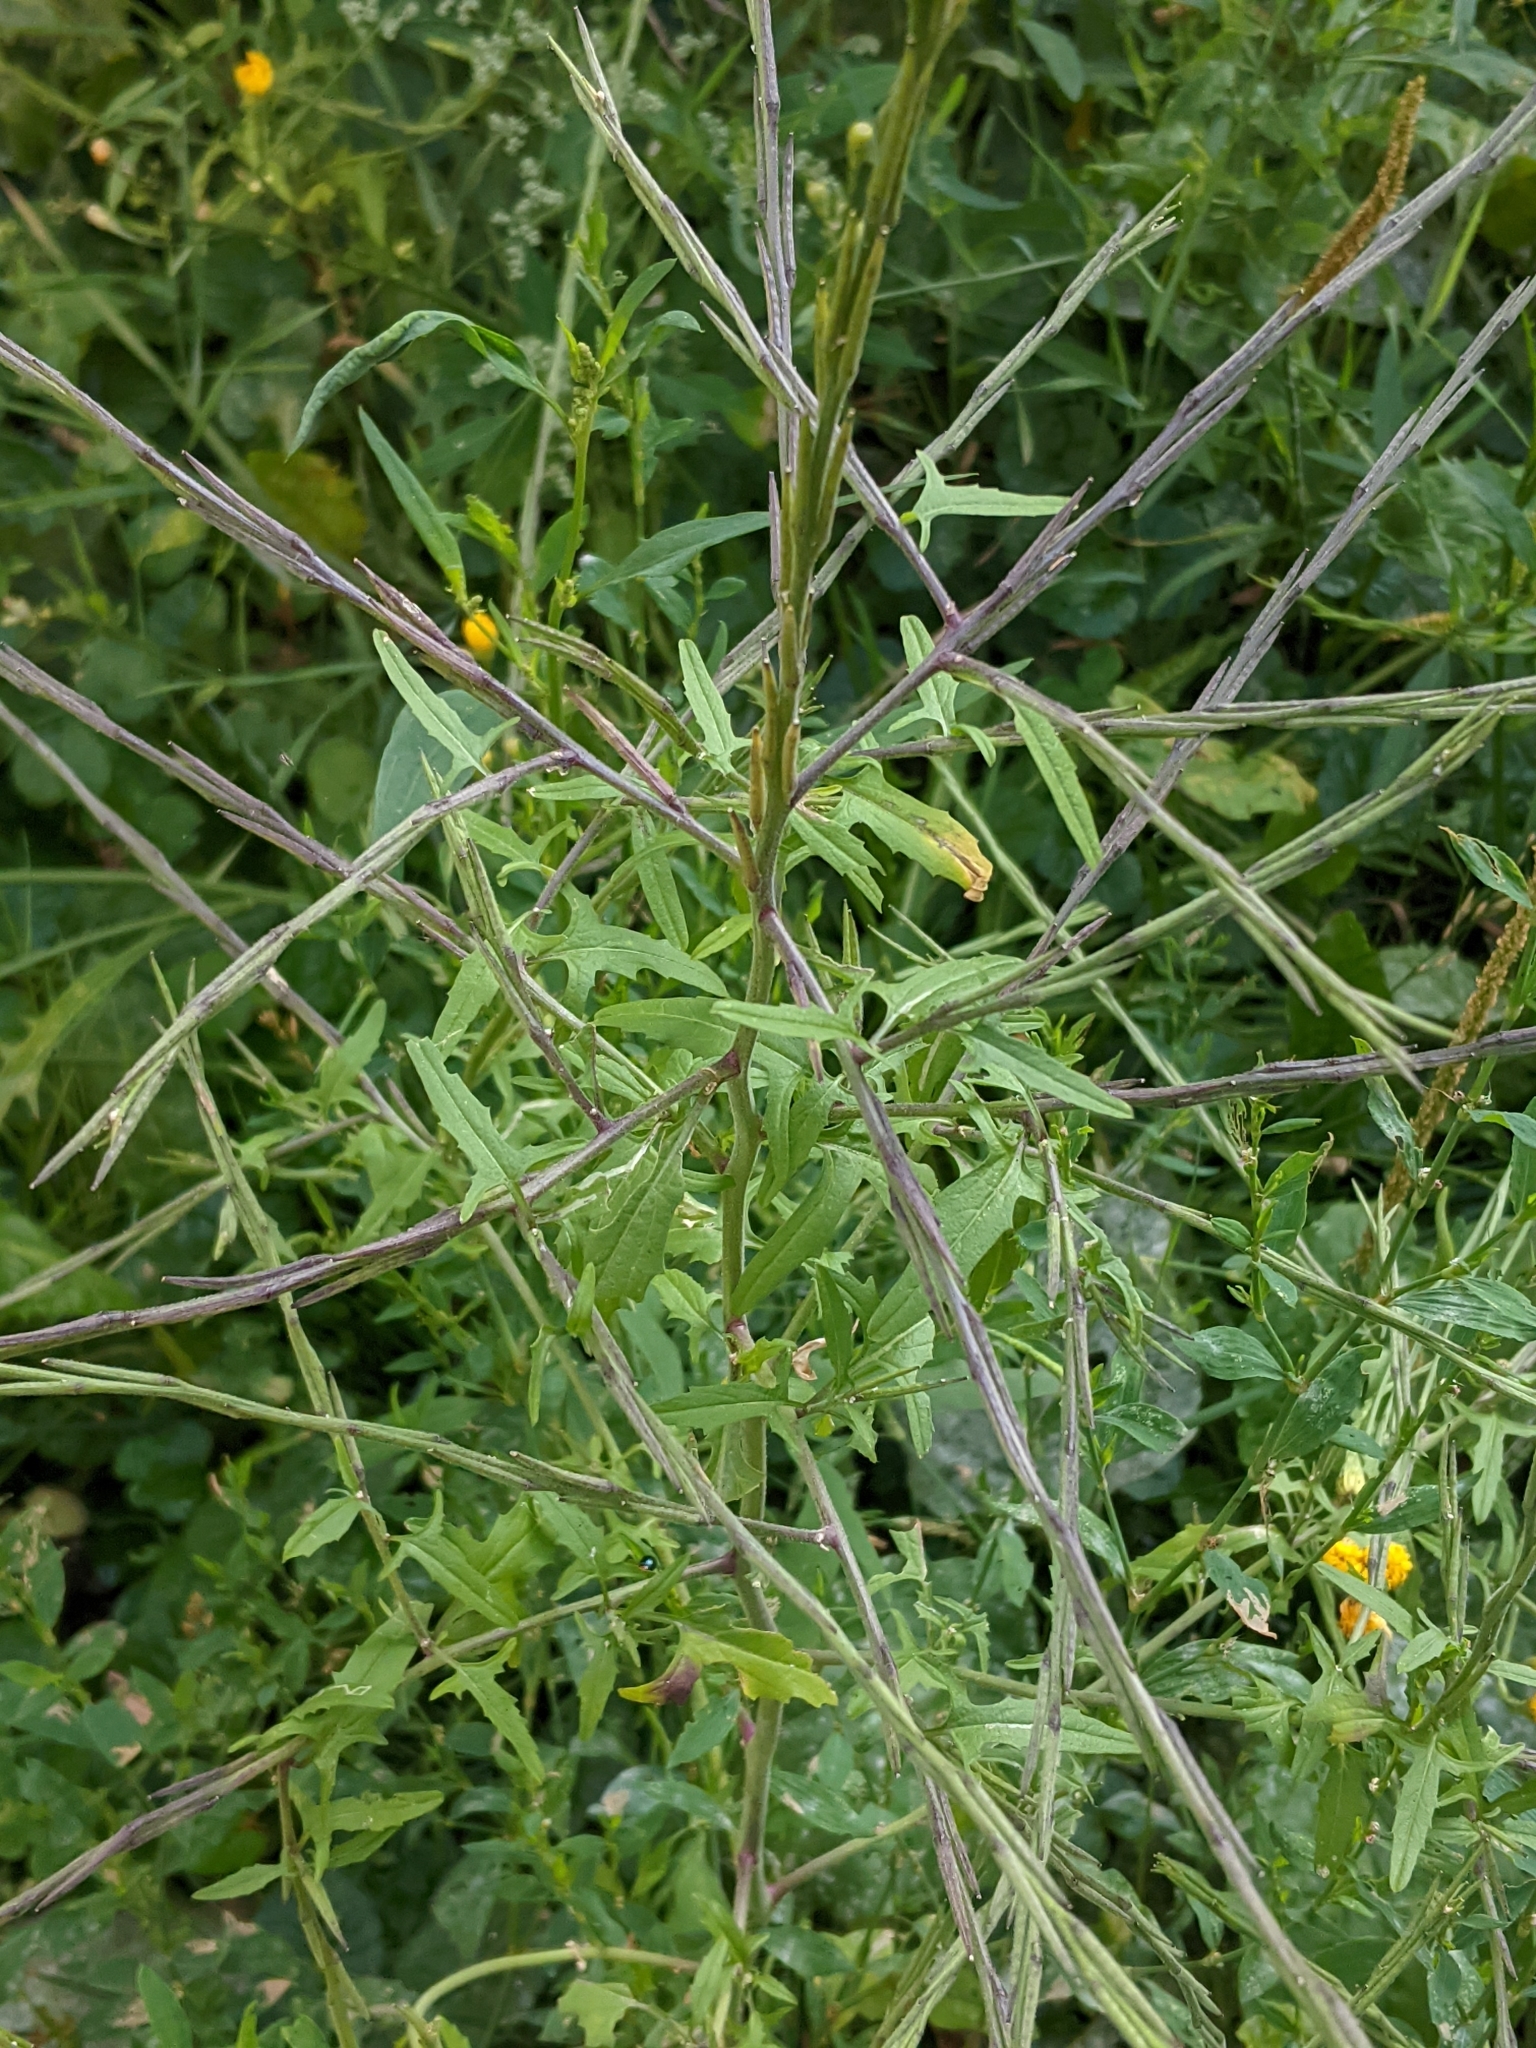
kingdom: Plantae
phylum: Tracheophyta
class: Magnoliopsida
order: Brassicales
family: Brassicaceae
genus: Sisymbrium
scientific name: Sisymbrium officinale
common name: Hedge mustard
